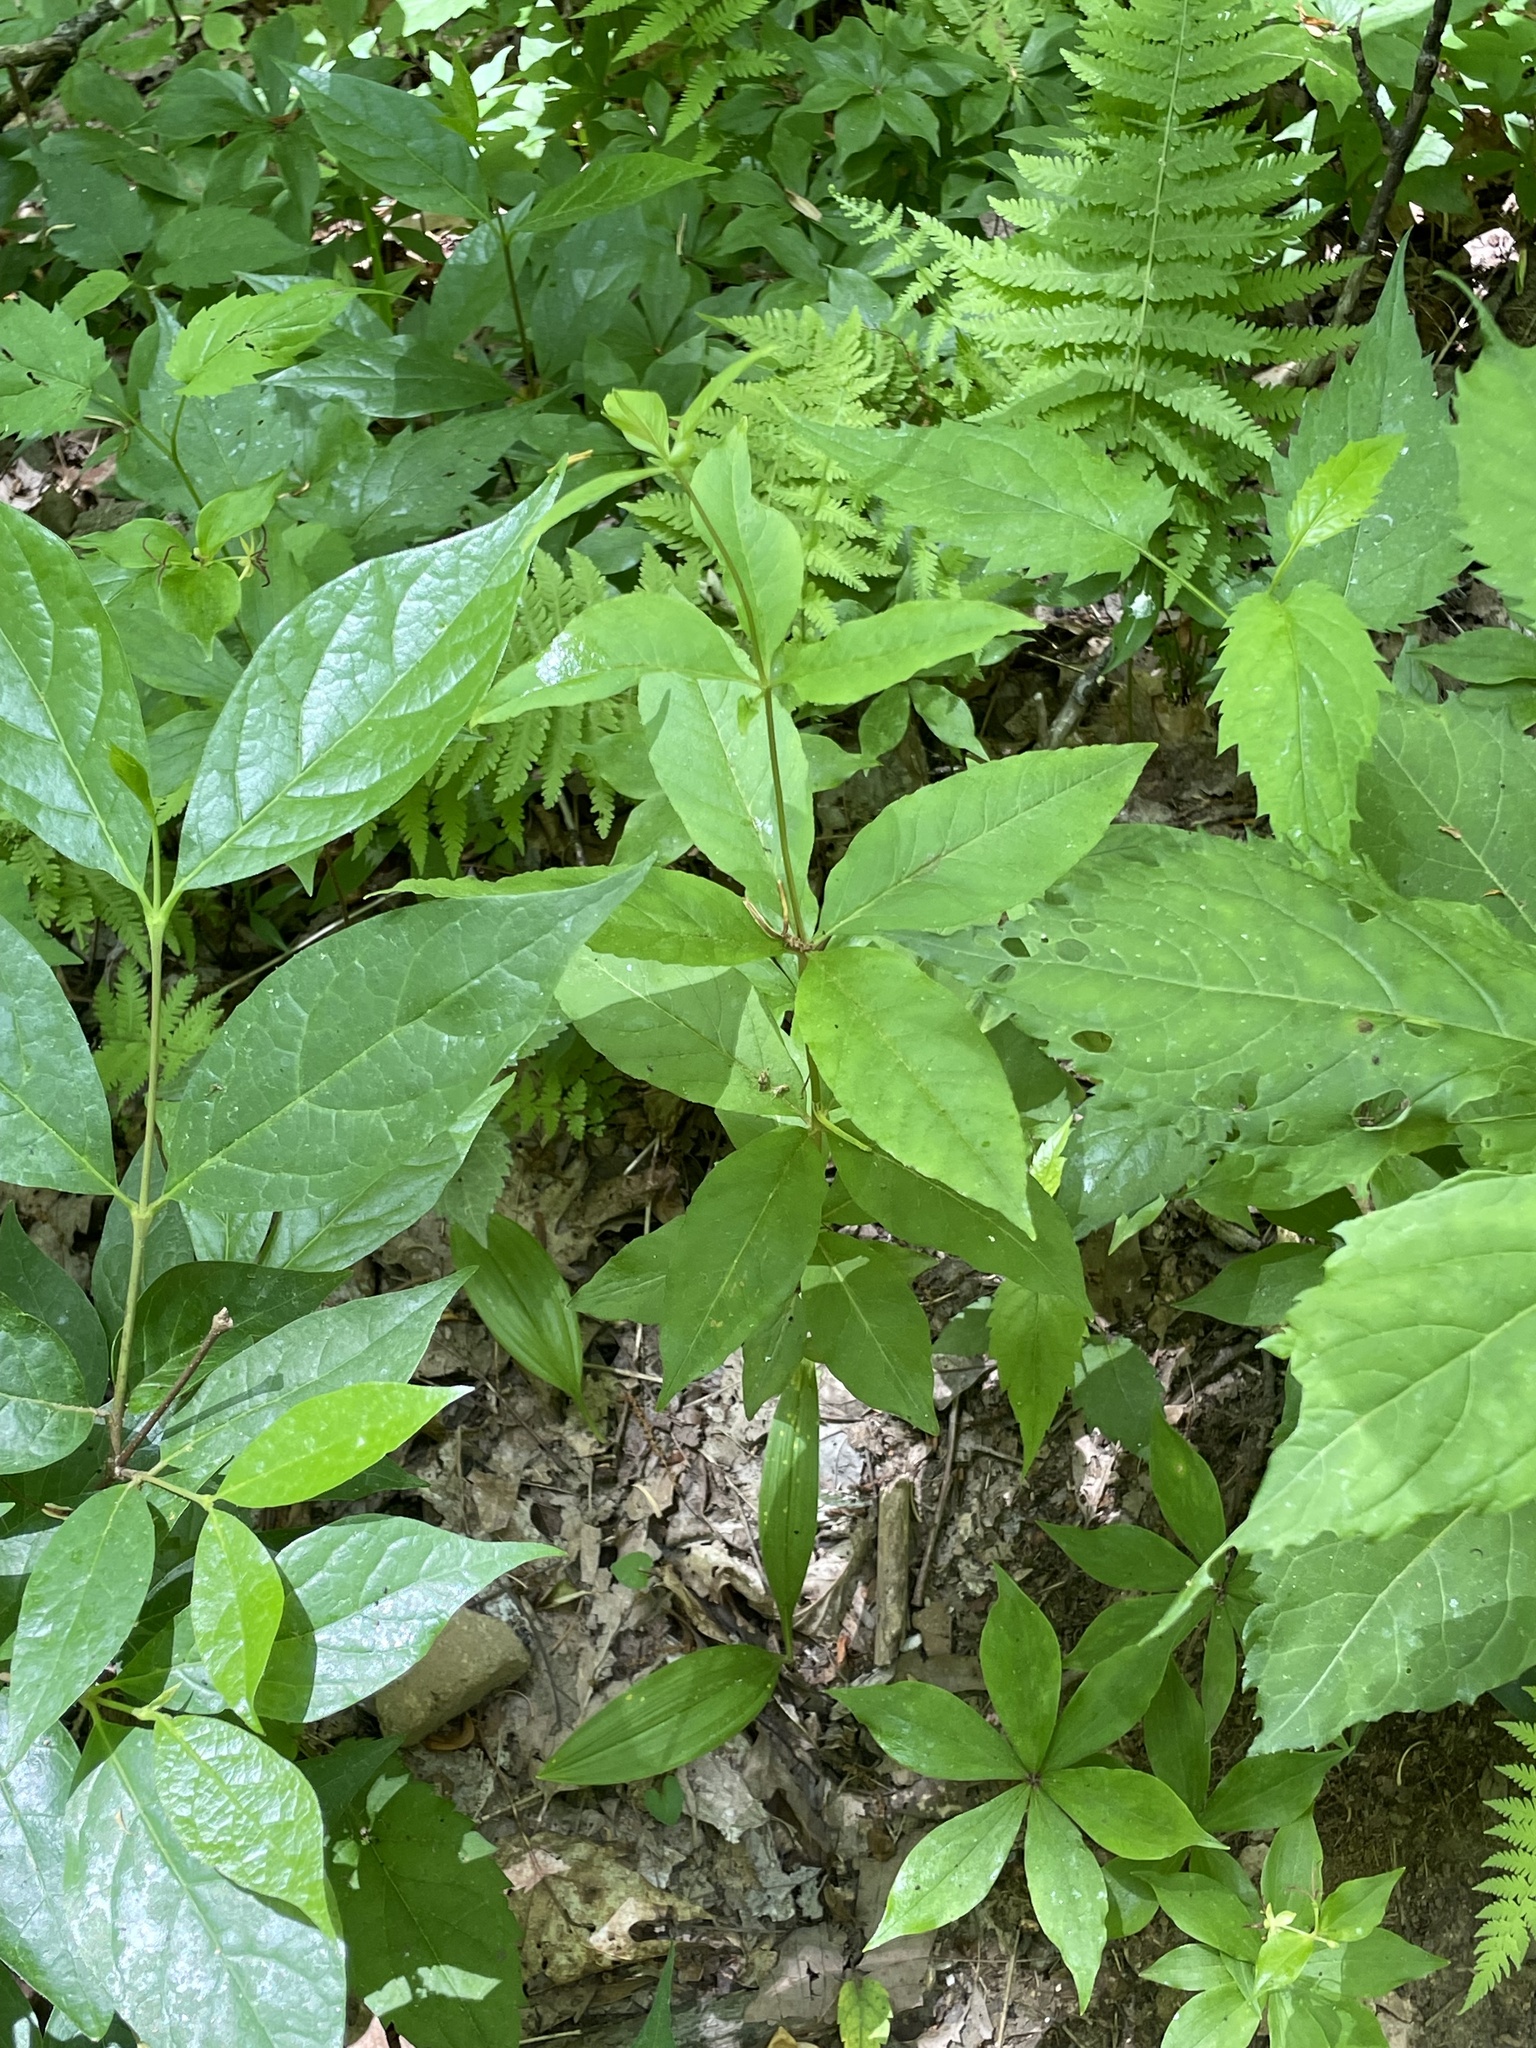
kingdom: Plantae
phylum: Tracheophyta
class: Magnoliopsida
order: Ericales
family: Primulaceae
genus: Lysimachia
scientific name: Lysimachia quadrifolia
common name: Whorled loosestrife
